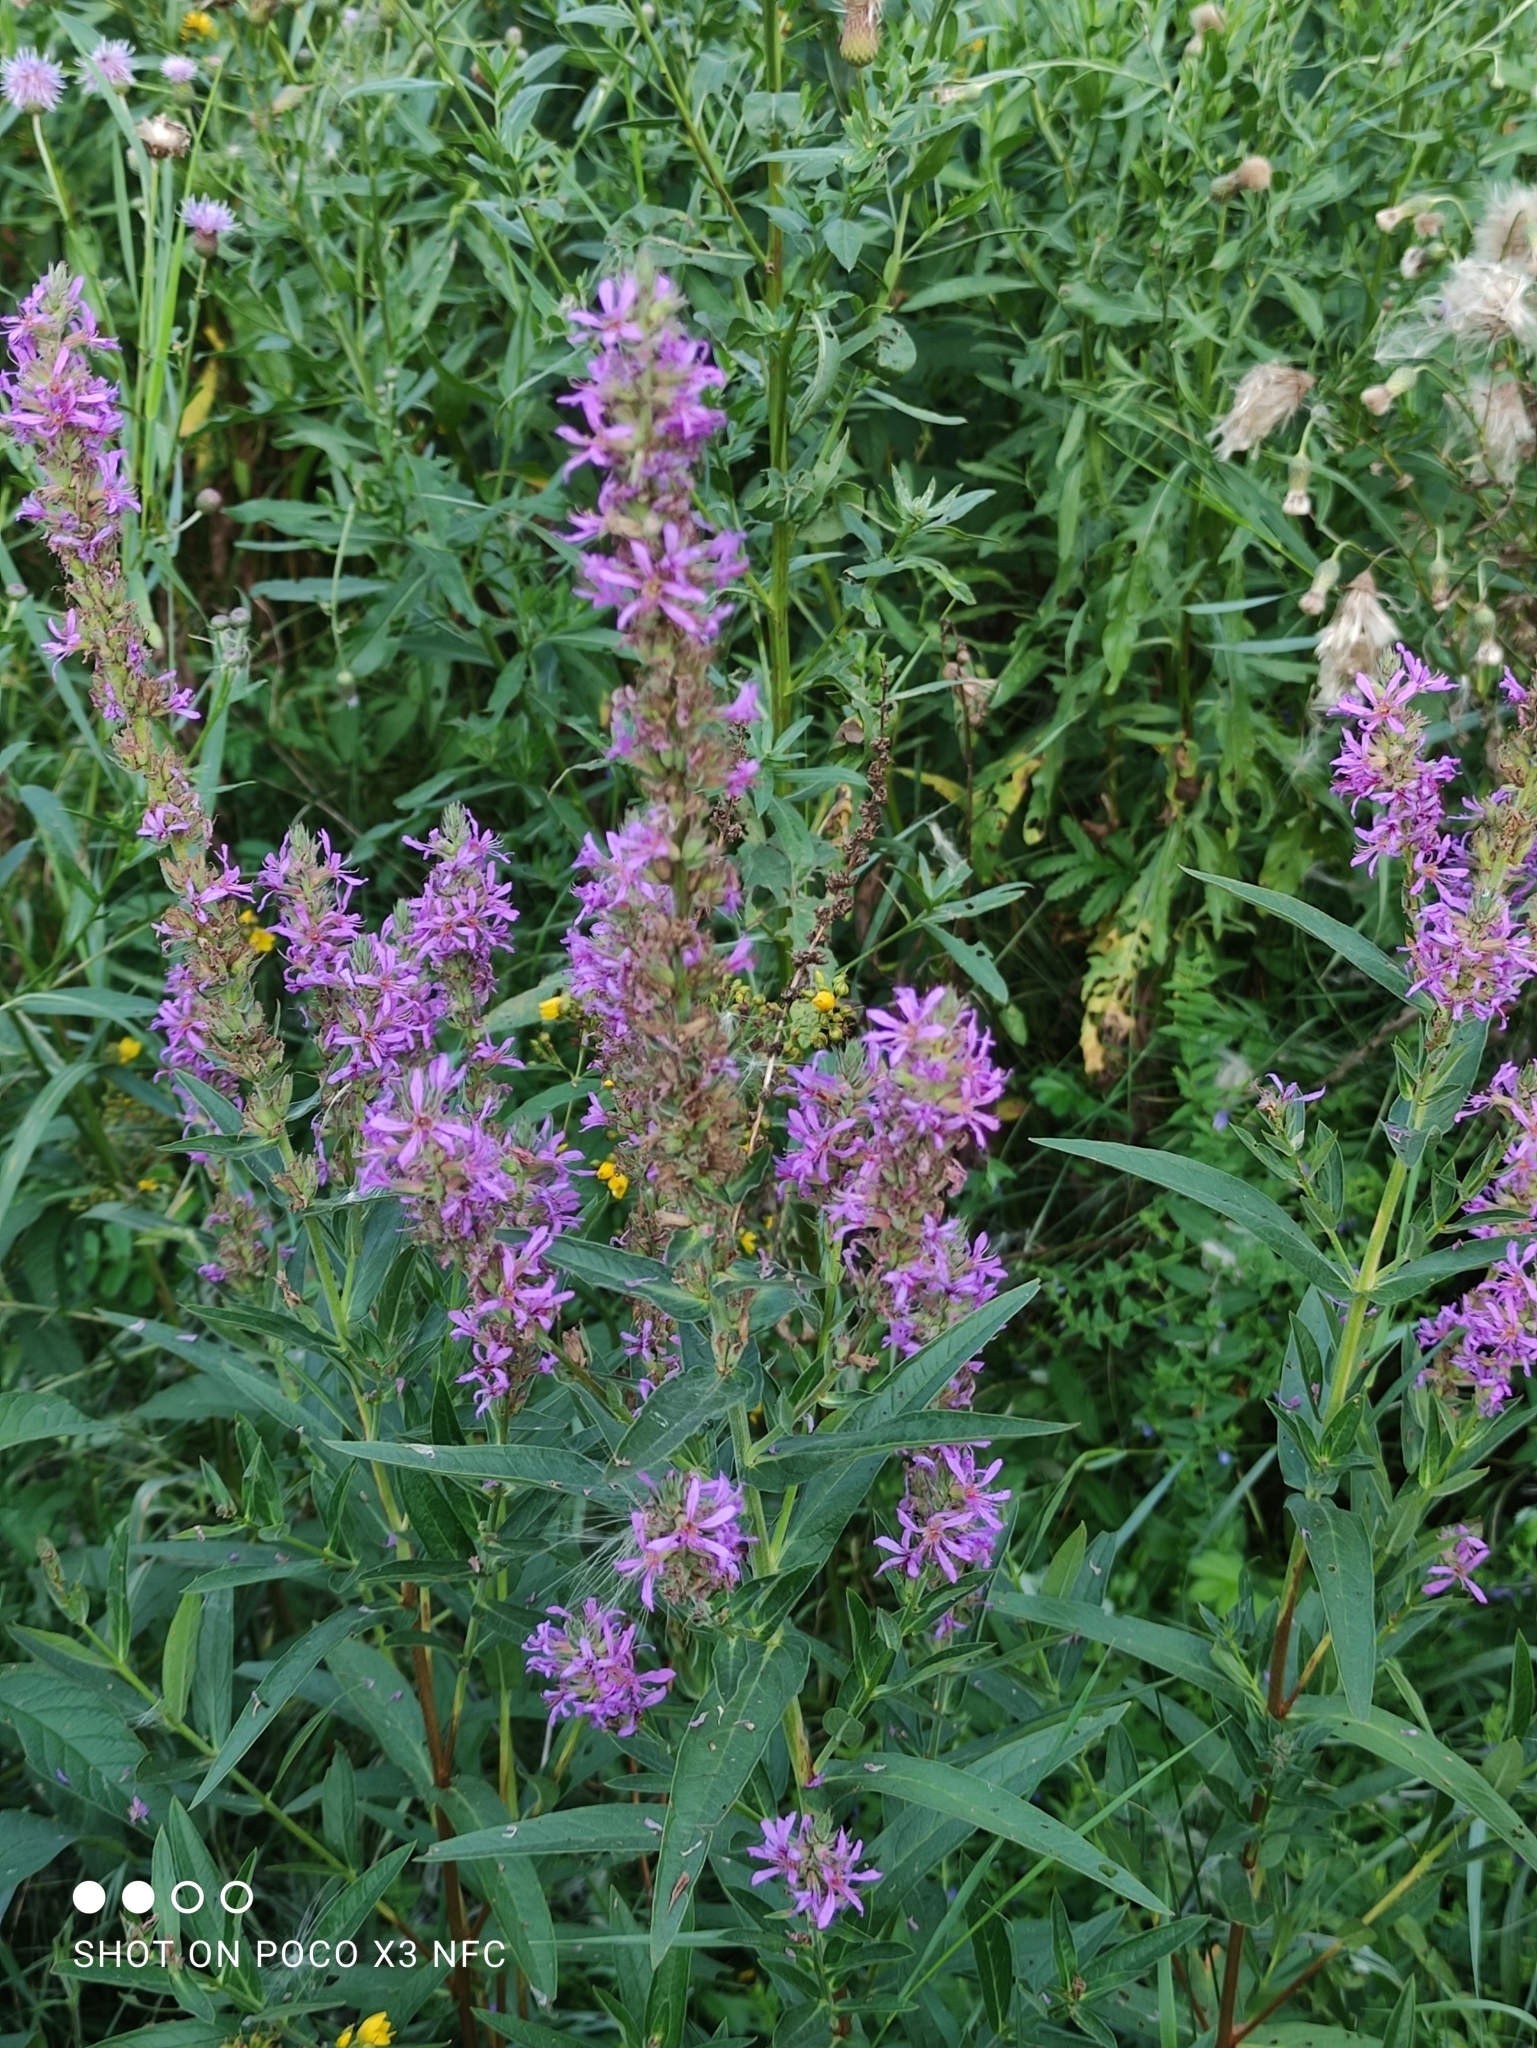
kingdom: Plantae
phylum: Tracheophyta
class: Magnoliopsida
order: Myrtales
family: Lythraceae
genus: Lythrum
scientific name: Lythrum salicaria
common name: Purple loosestrife
